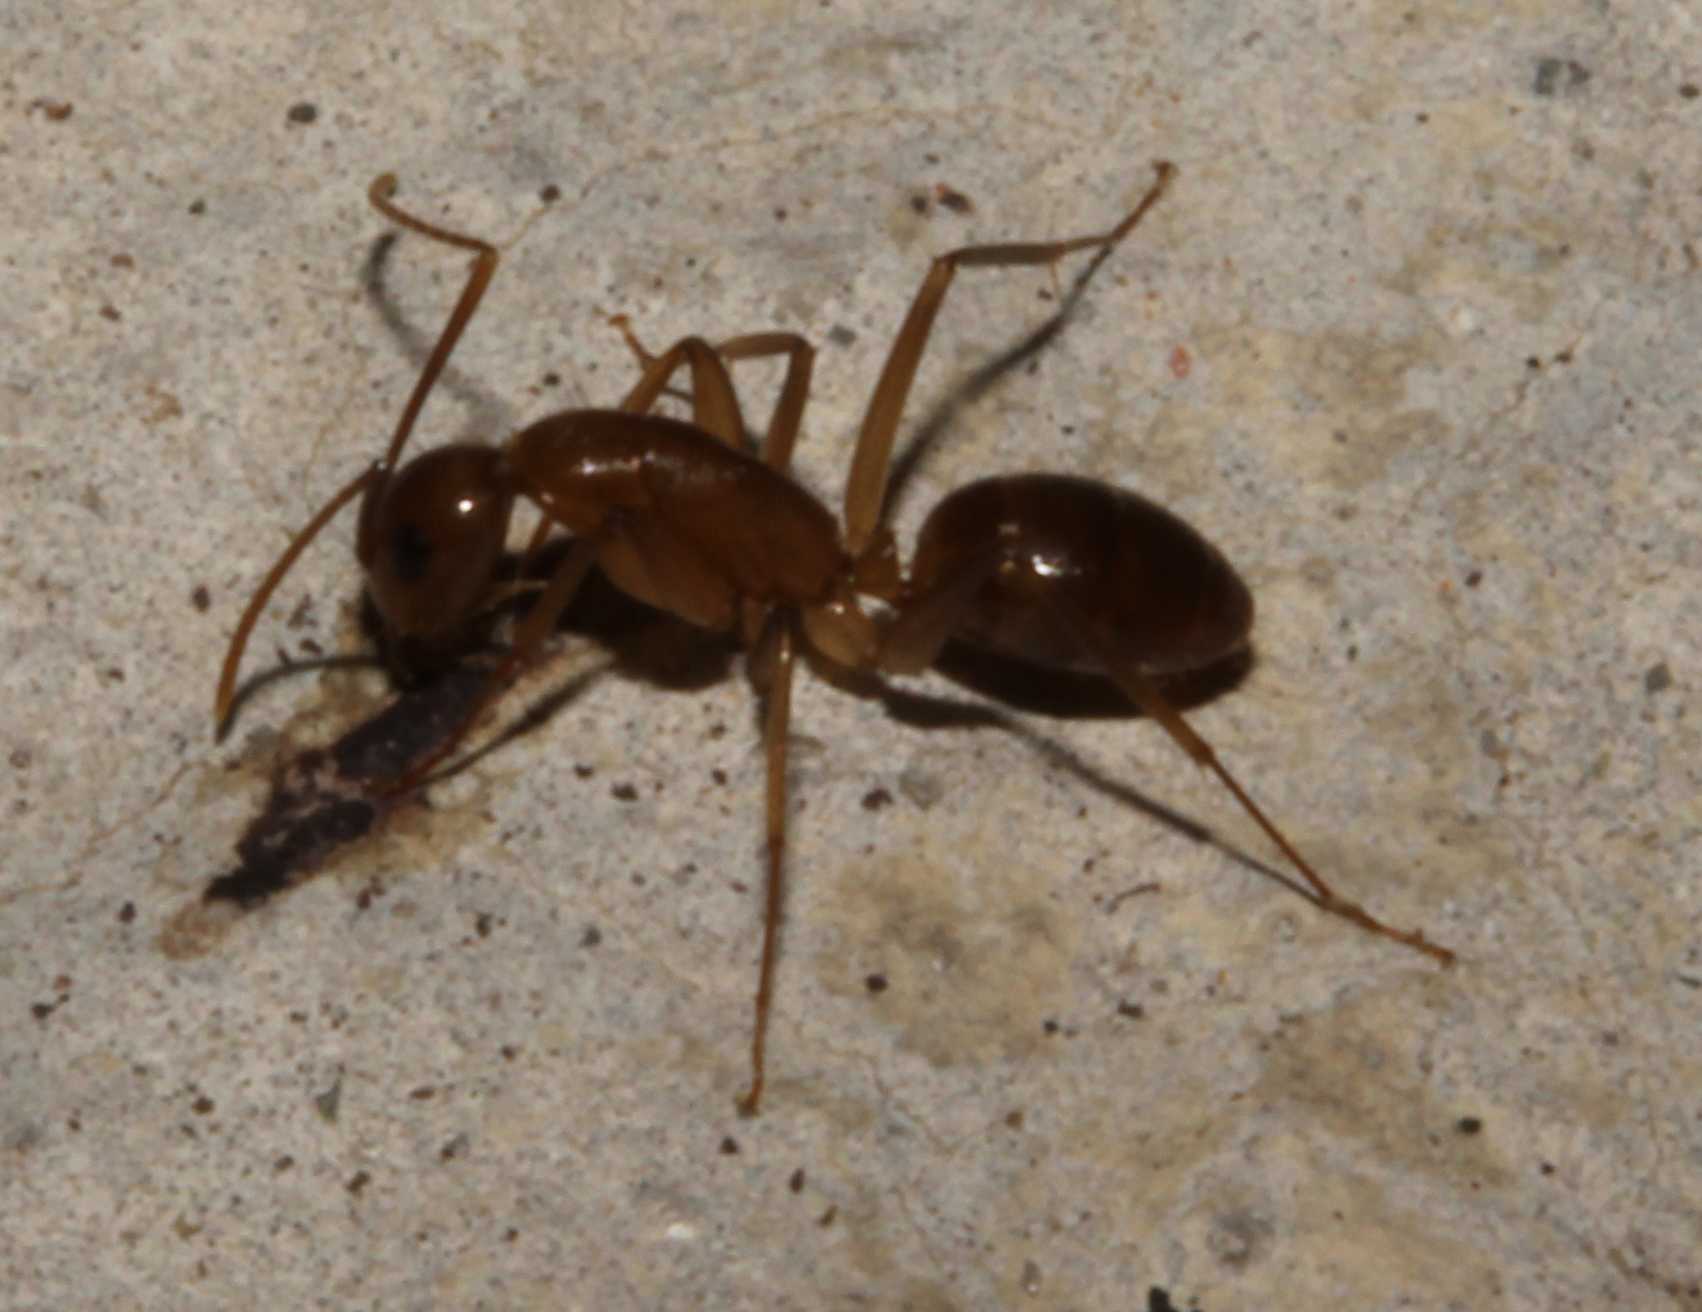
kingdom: Animalia
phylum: Arthropoda
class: Insecta
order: Hymenoptera
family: Formicidae
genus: Tanaemyrmex
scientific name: Tanaemyrmex
